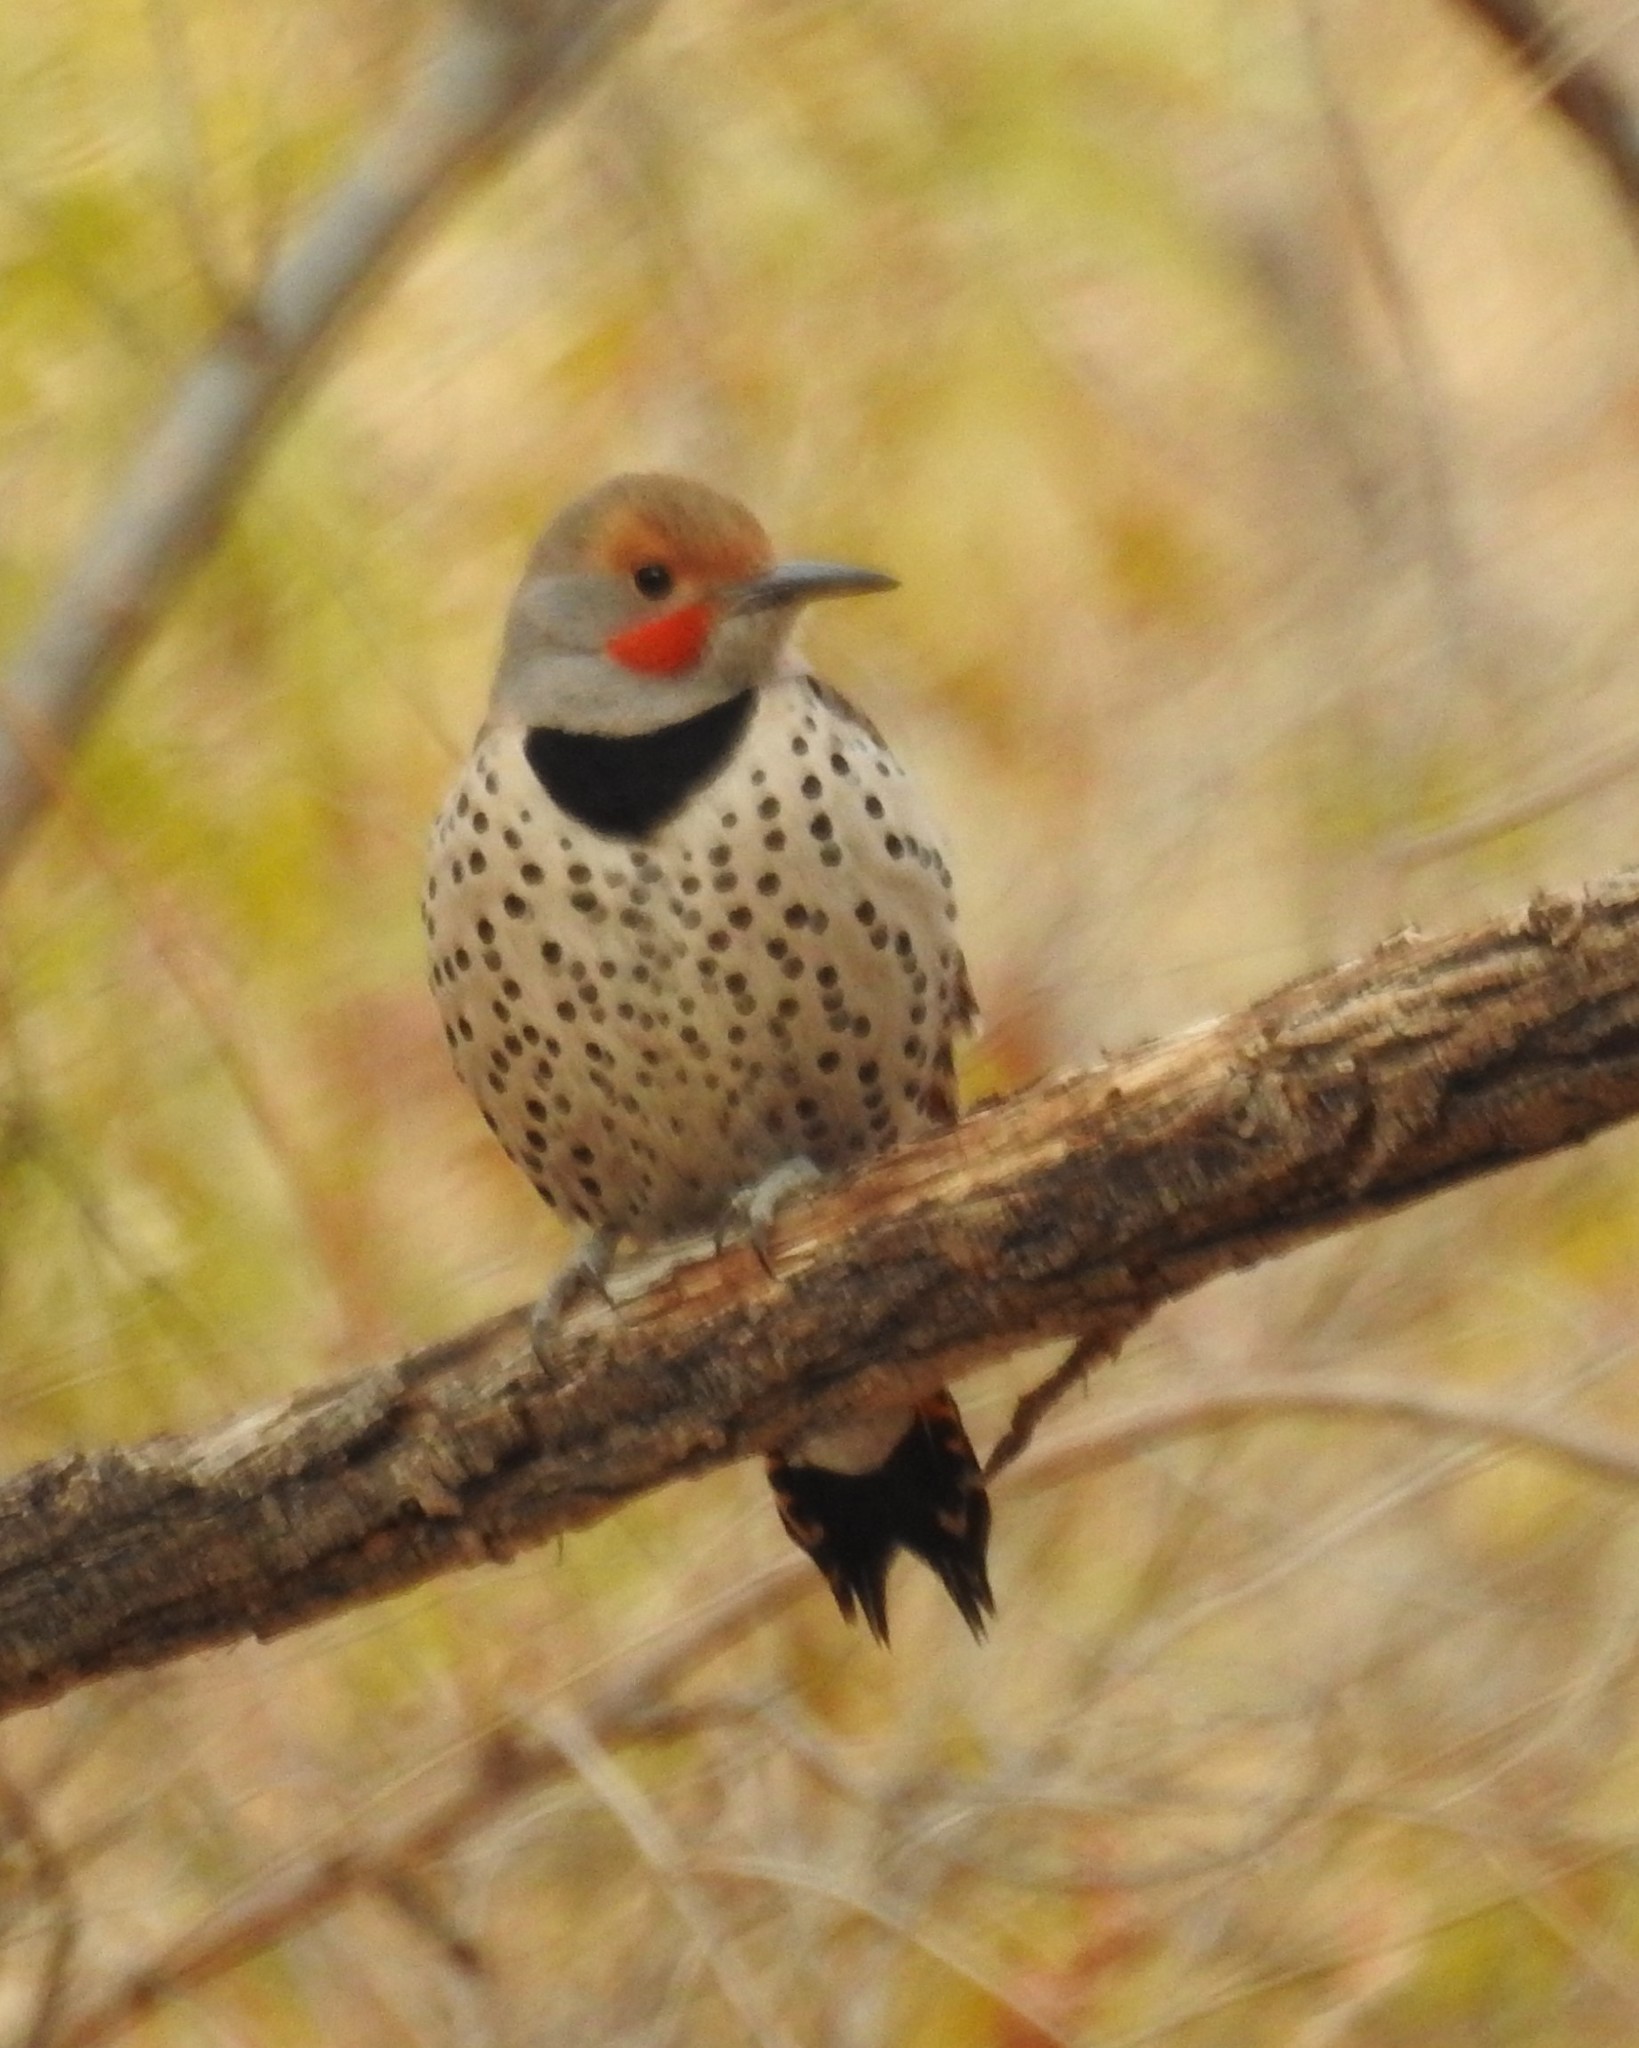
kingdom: Animalia
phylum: Chordata
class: Aves
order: Piciformes
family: Picidae
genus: Colaptes
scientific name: Colaptes auratus
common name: Northern flicker
